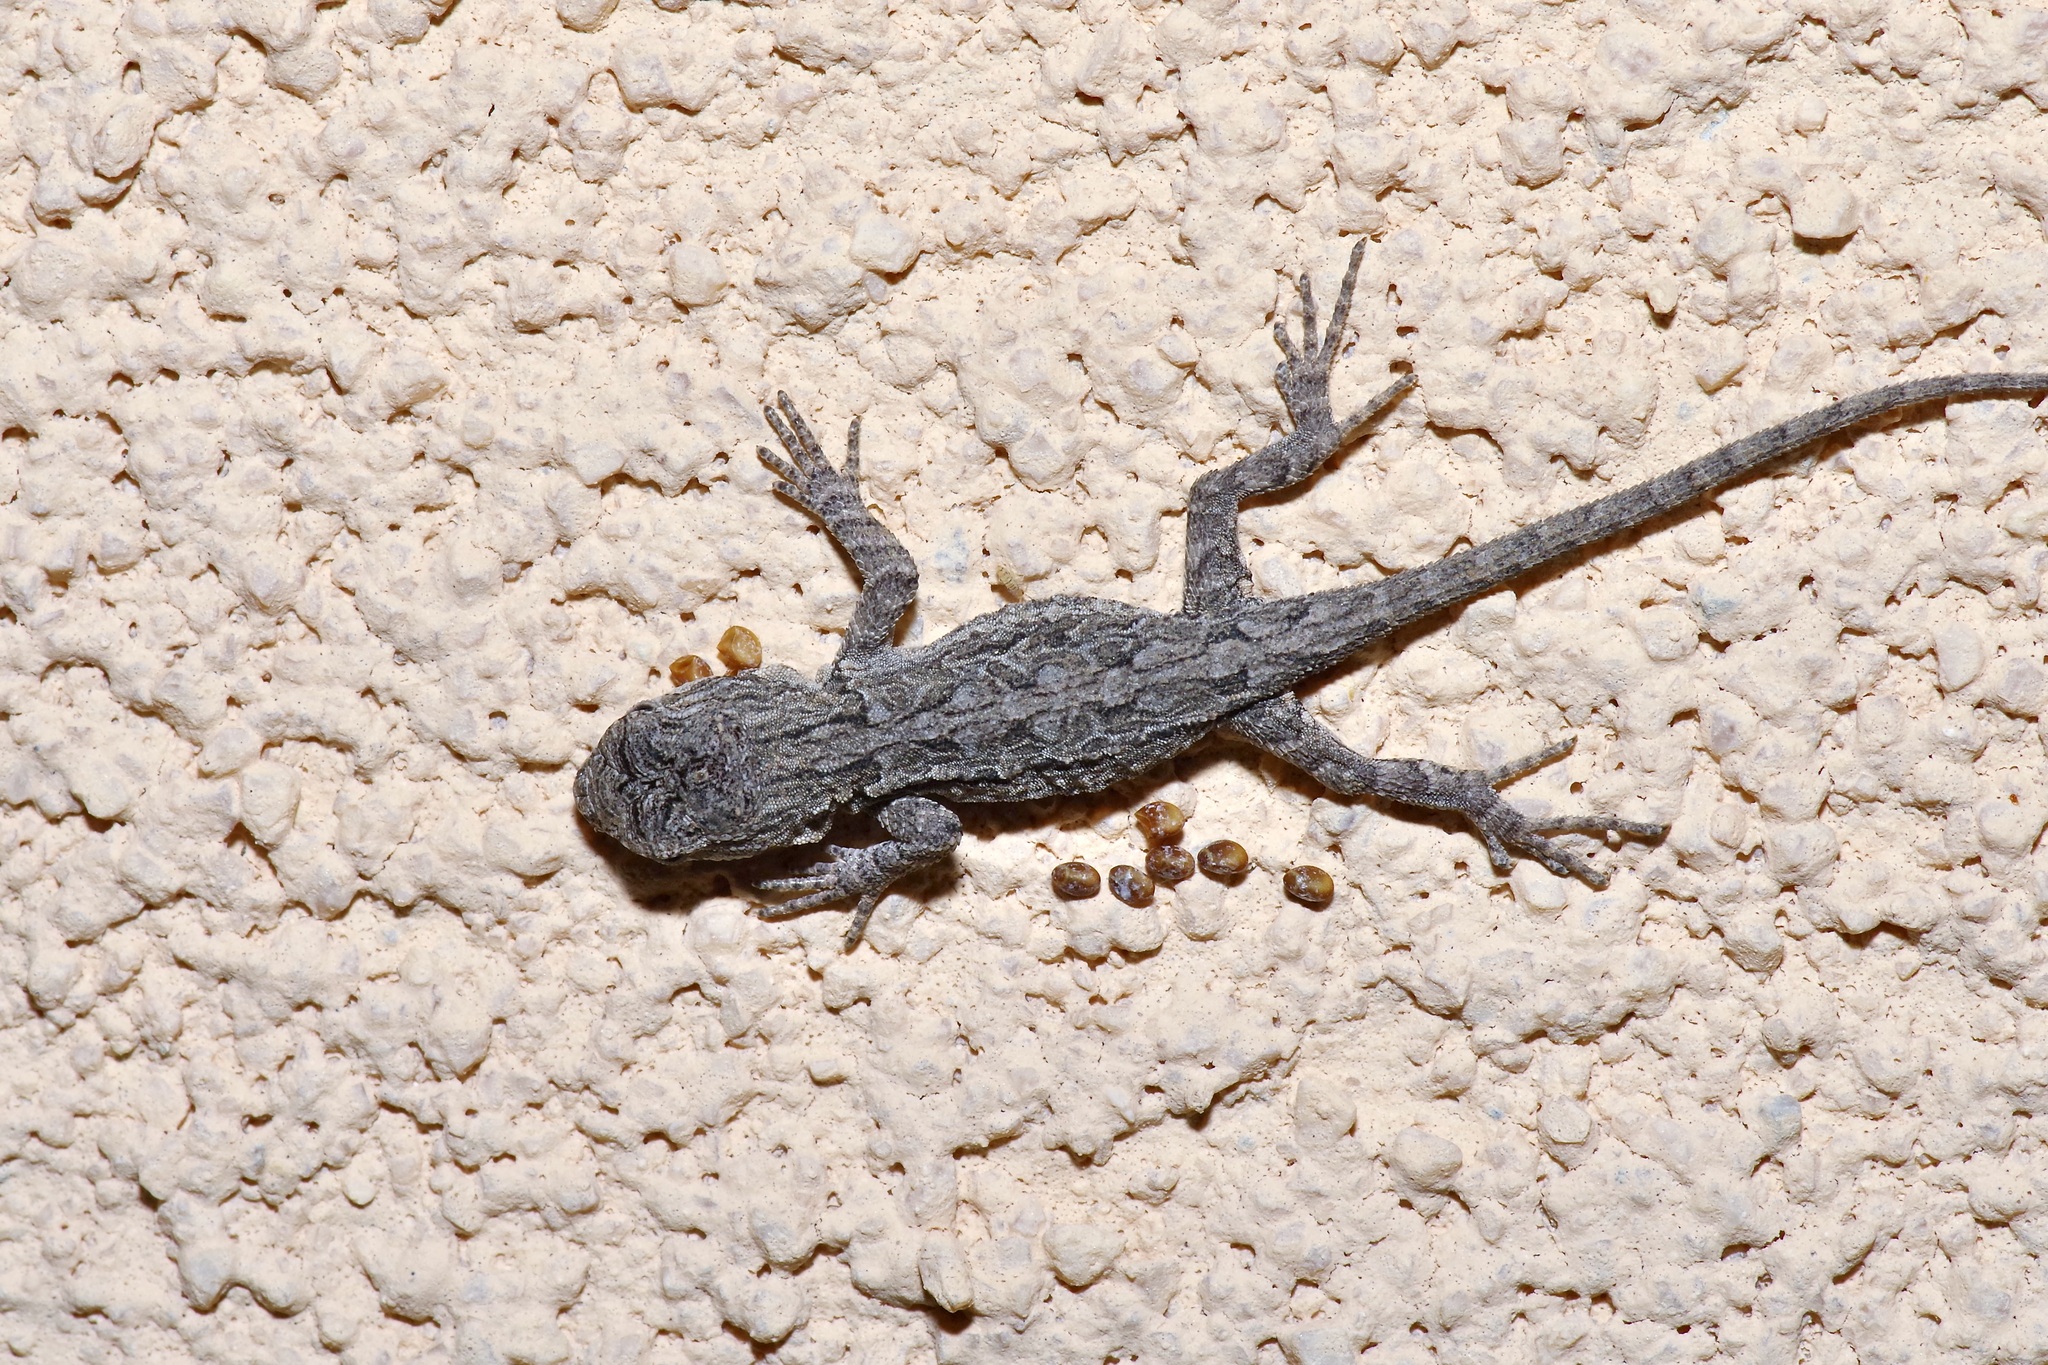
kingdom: Animalia
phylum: Chordata
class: Squamata
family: Phrynosomatidae
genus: Urosaurus
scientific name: Urosaurus ornatus
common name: Ornate tree lizard
